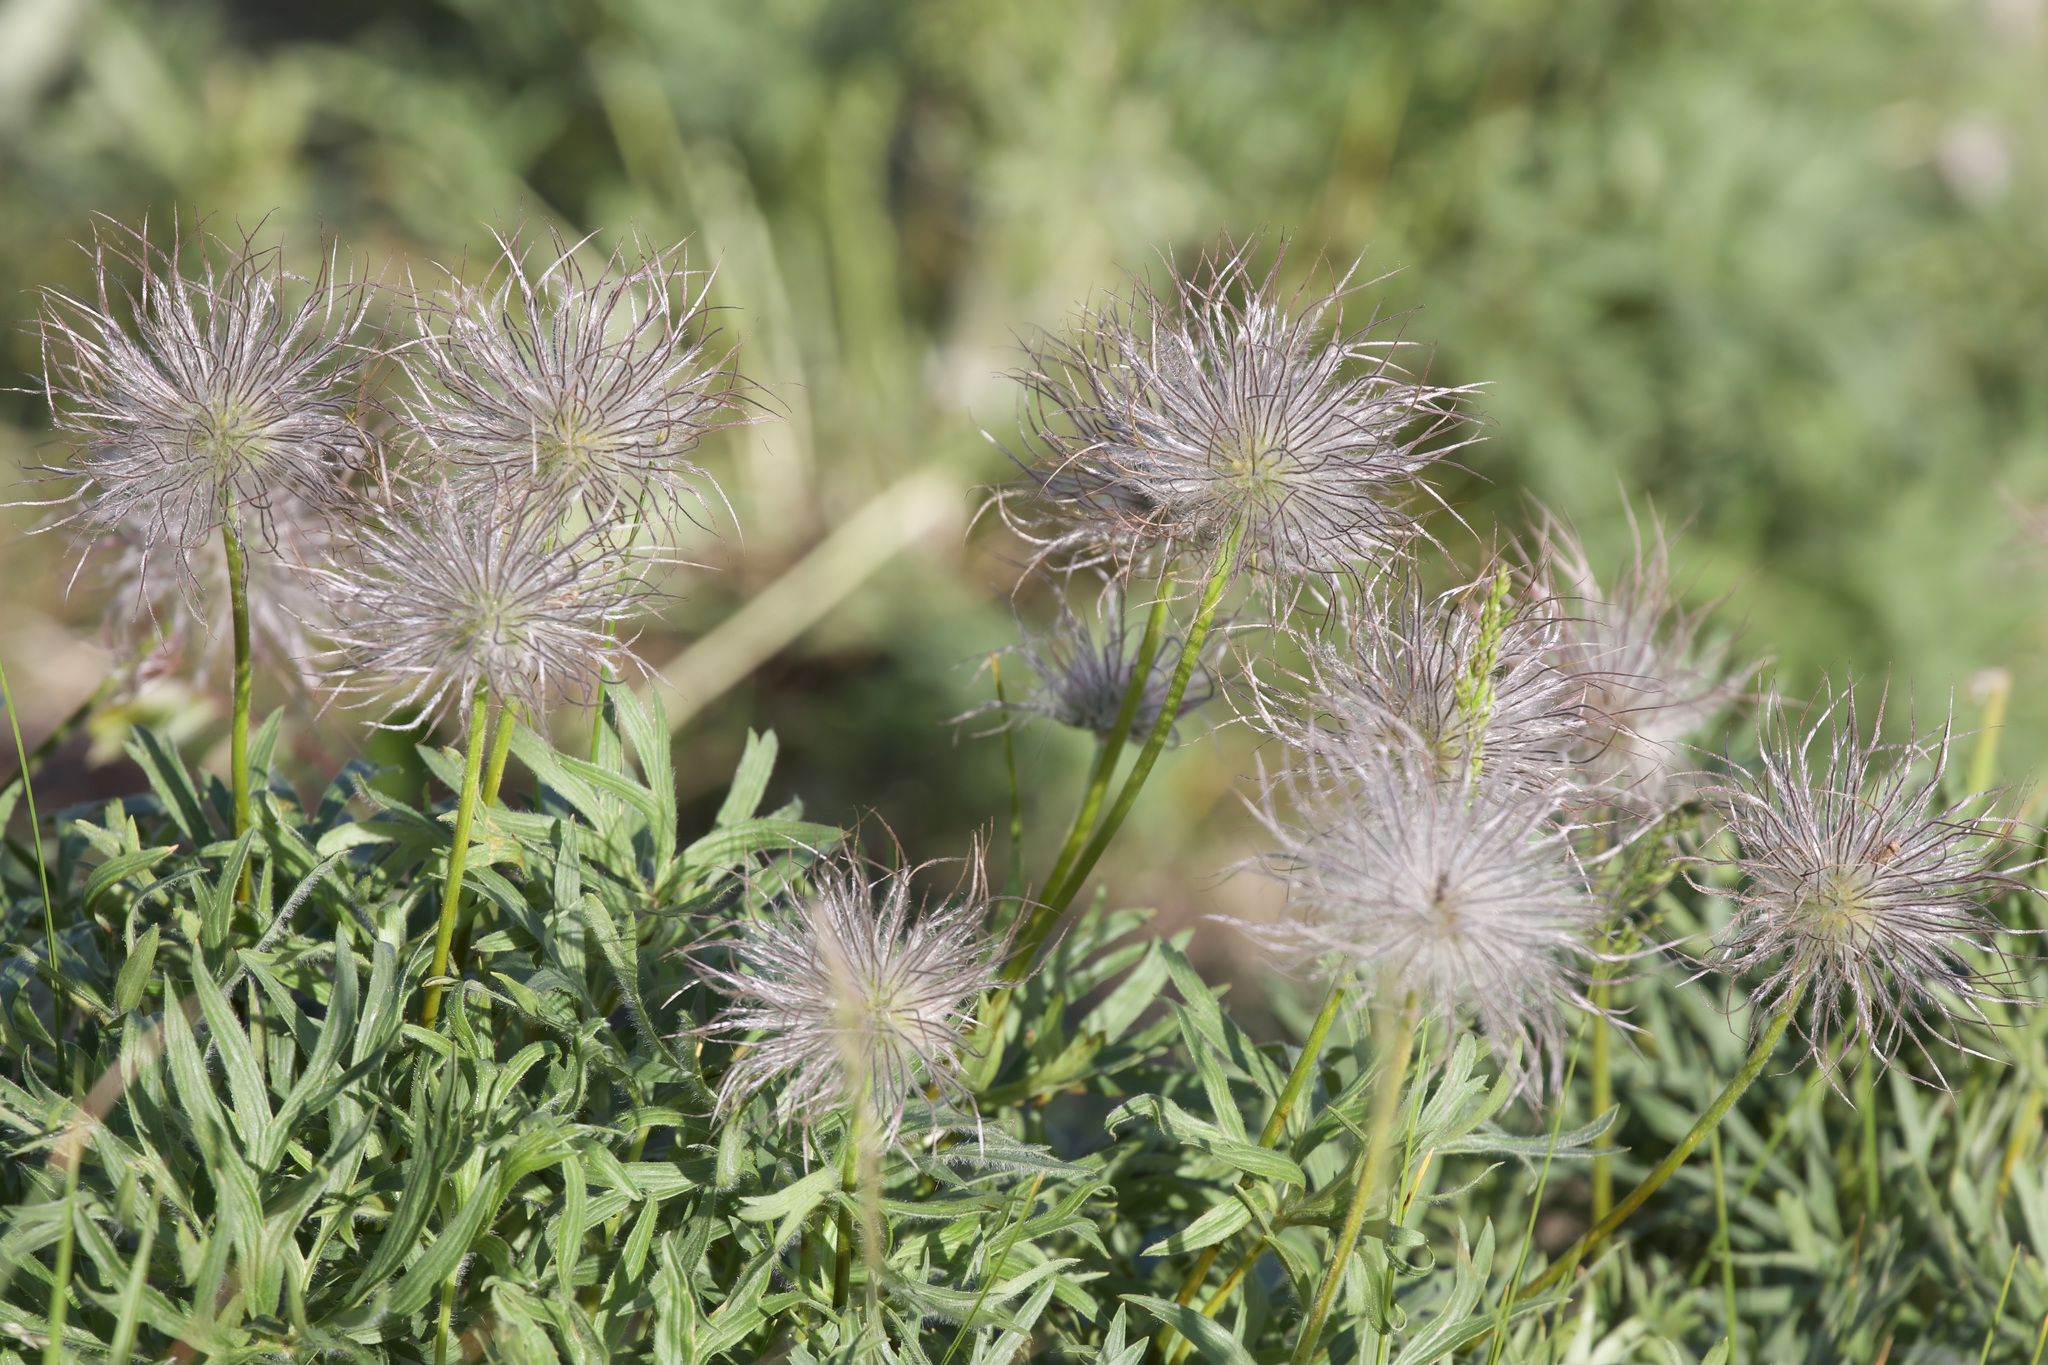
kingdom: Plantae
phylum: Tracheophyta
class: Magnoliopsida
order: Ranunculales
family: Ranunculaceae
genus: Pulsatilla
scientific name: Pulsatilla nuttalliana
